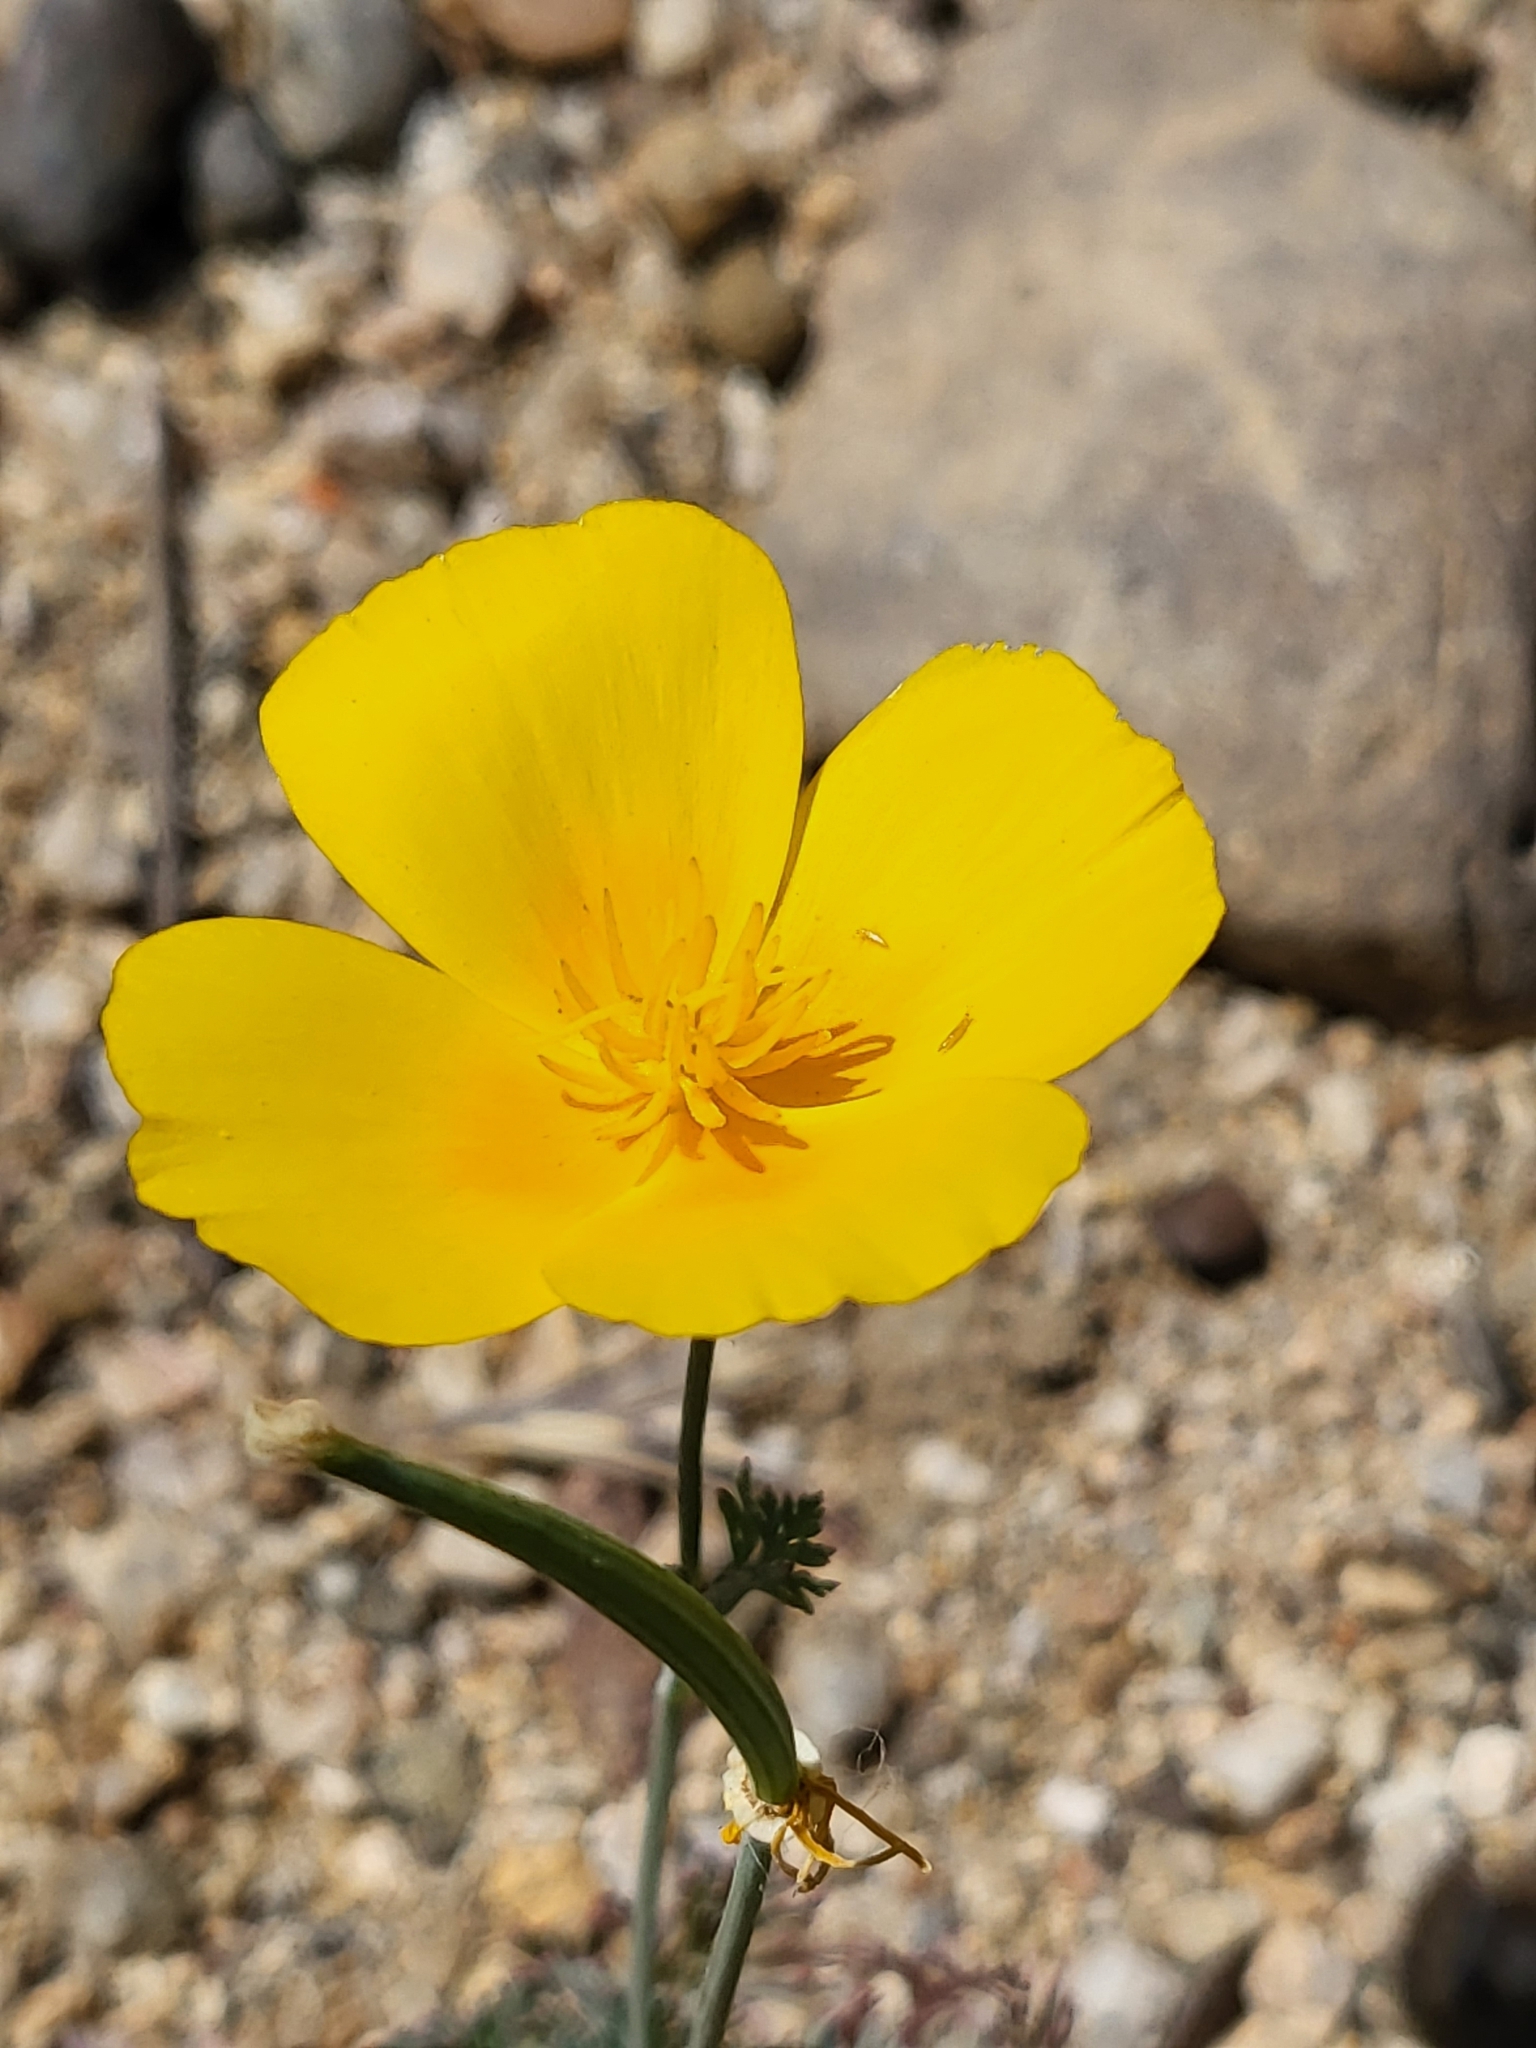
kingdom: Plantae
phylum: Tracheophyta
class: Magnoliopsida
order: Ranunculales
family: Papaveraceae
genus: Eschscholzia
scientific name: Eschscholzia californica
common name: California poppy
